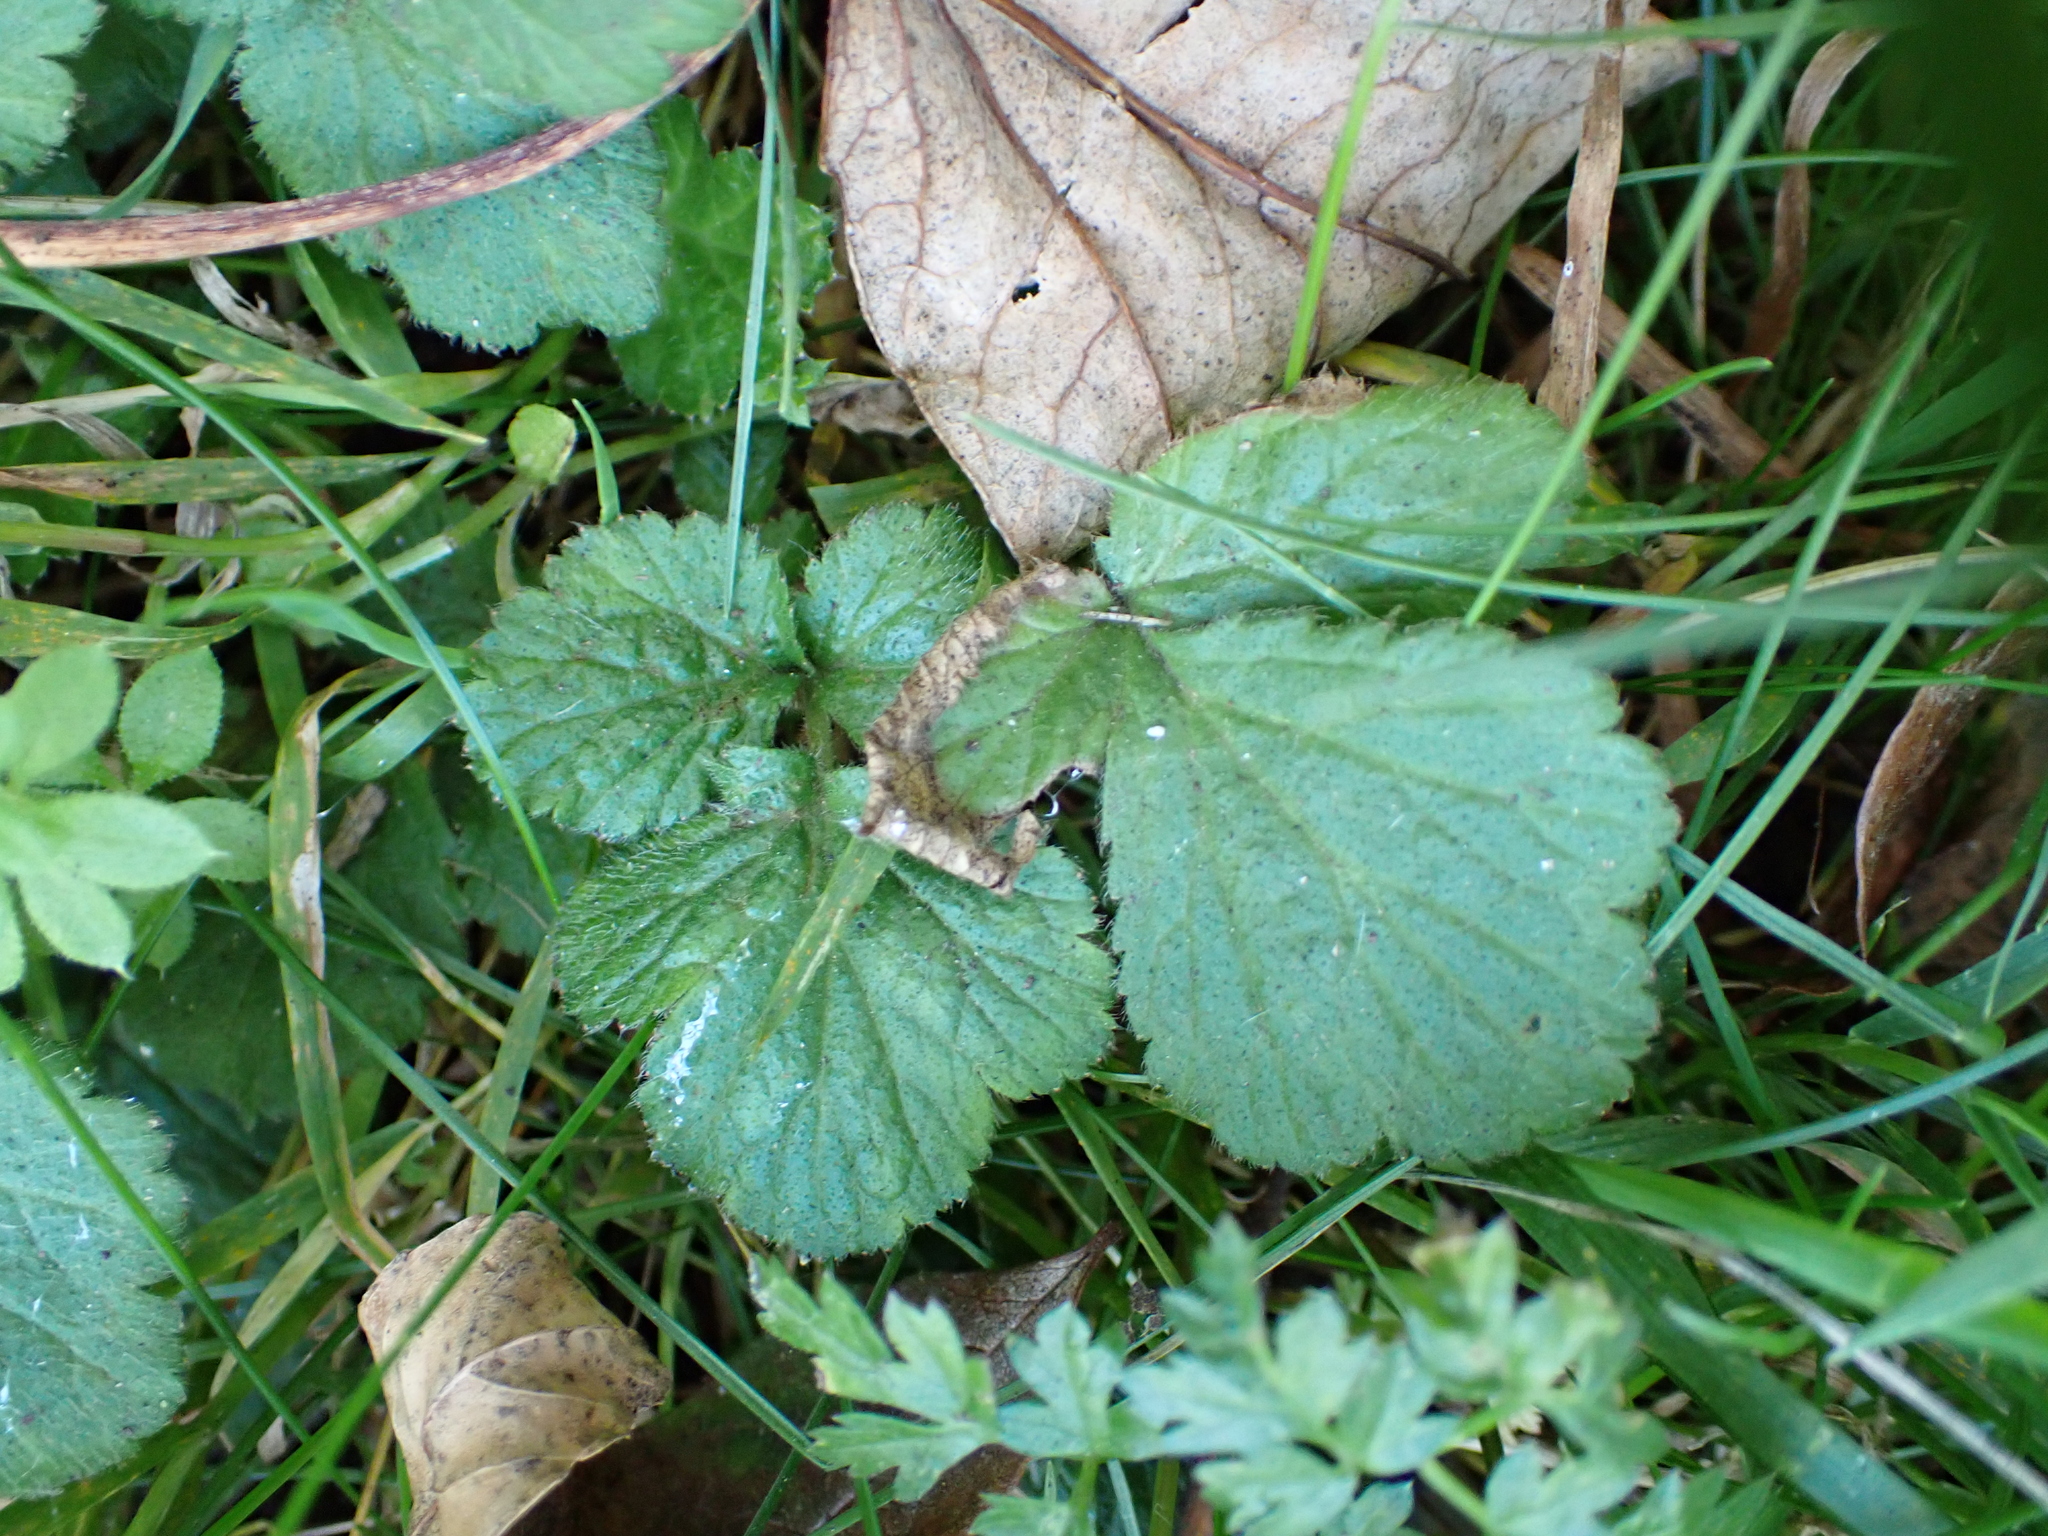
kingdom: Plantae
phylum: Tracheophyta
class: Magnoliopsida
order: Rosales
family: Rosaceae
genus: Geum
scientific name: Geum urbanum
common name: Wood avens
